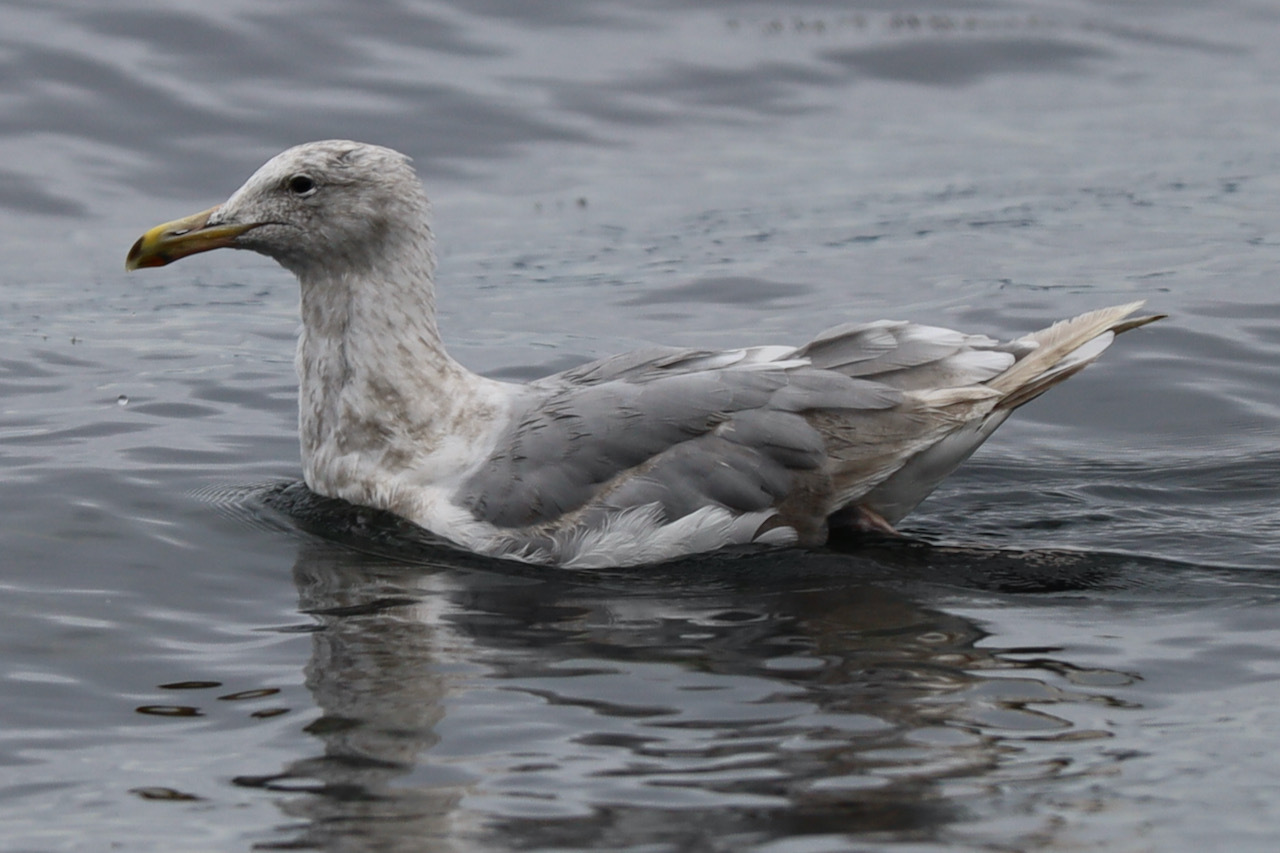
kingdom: Animalia
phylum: Chordata
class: Aves
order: Charadriiformes
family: Laridae
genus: Larus
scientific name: Larus
